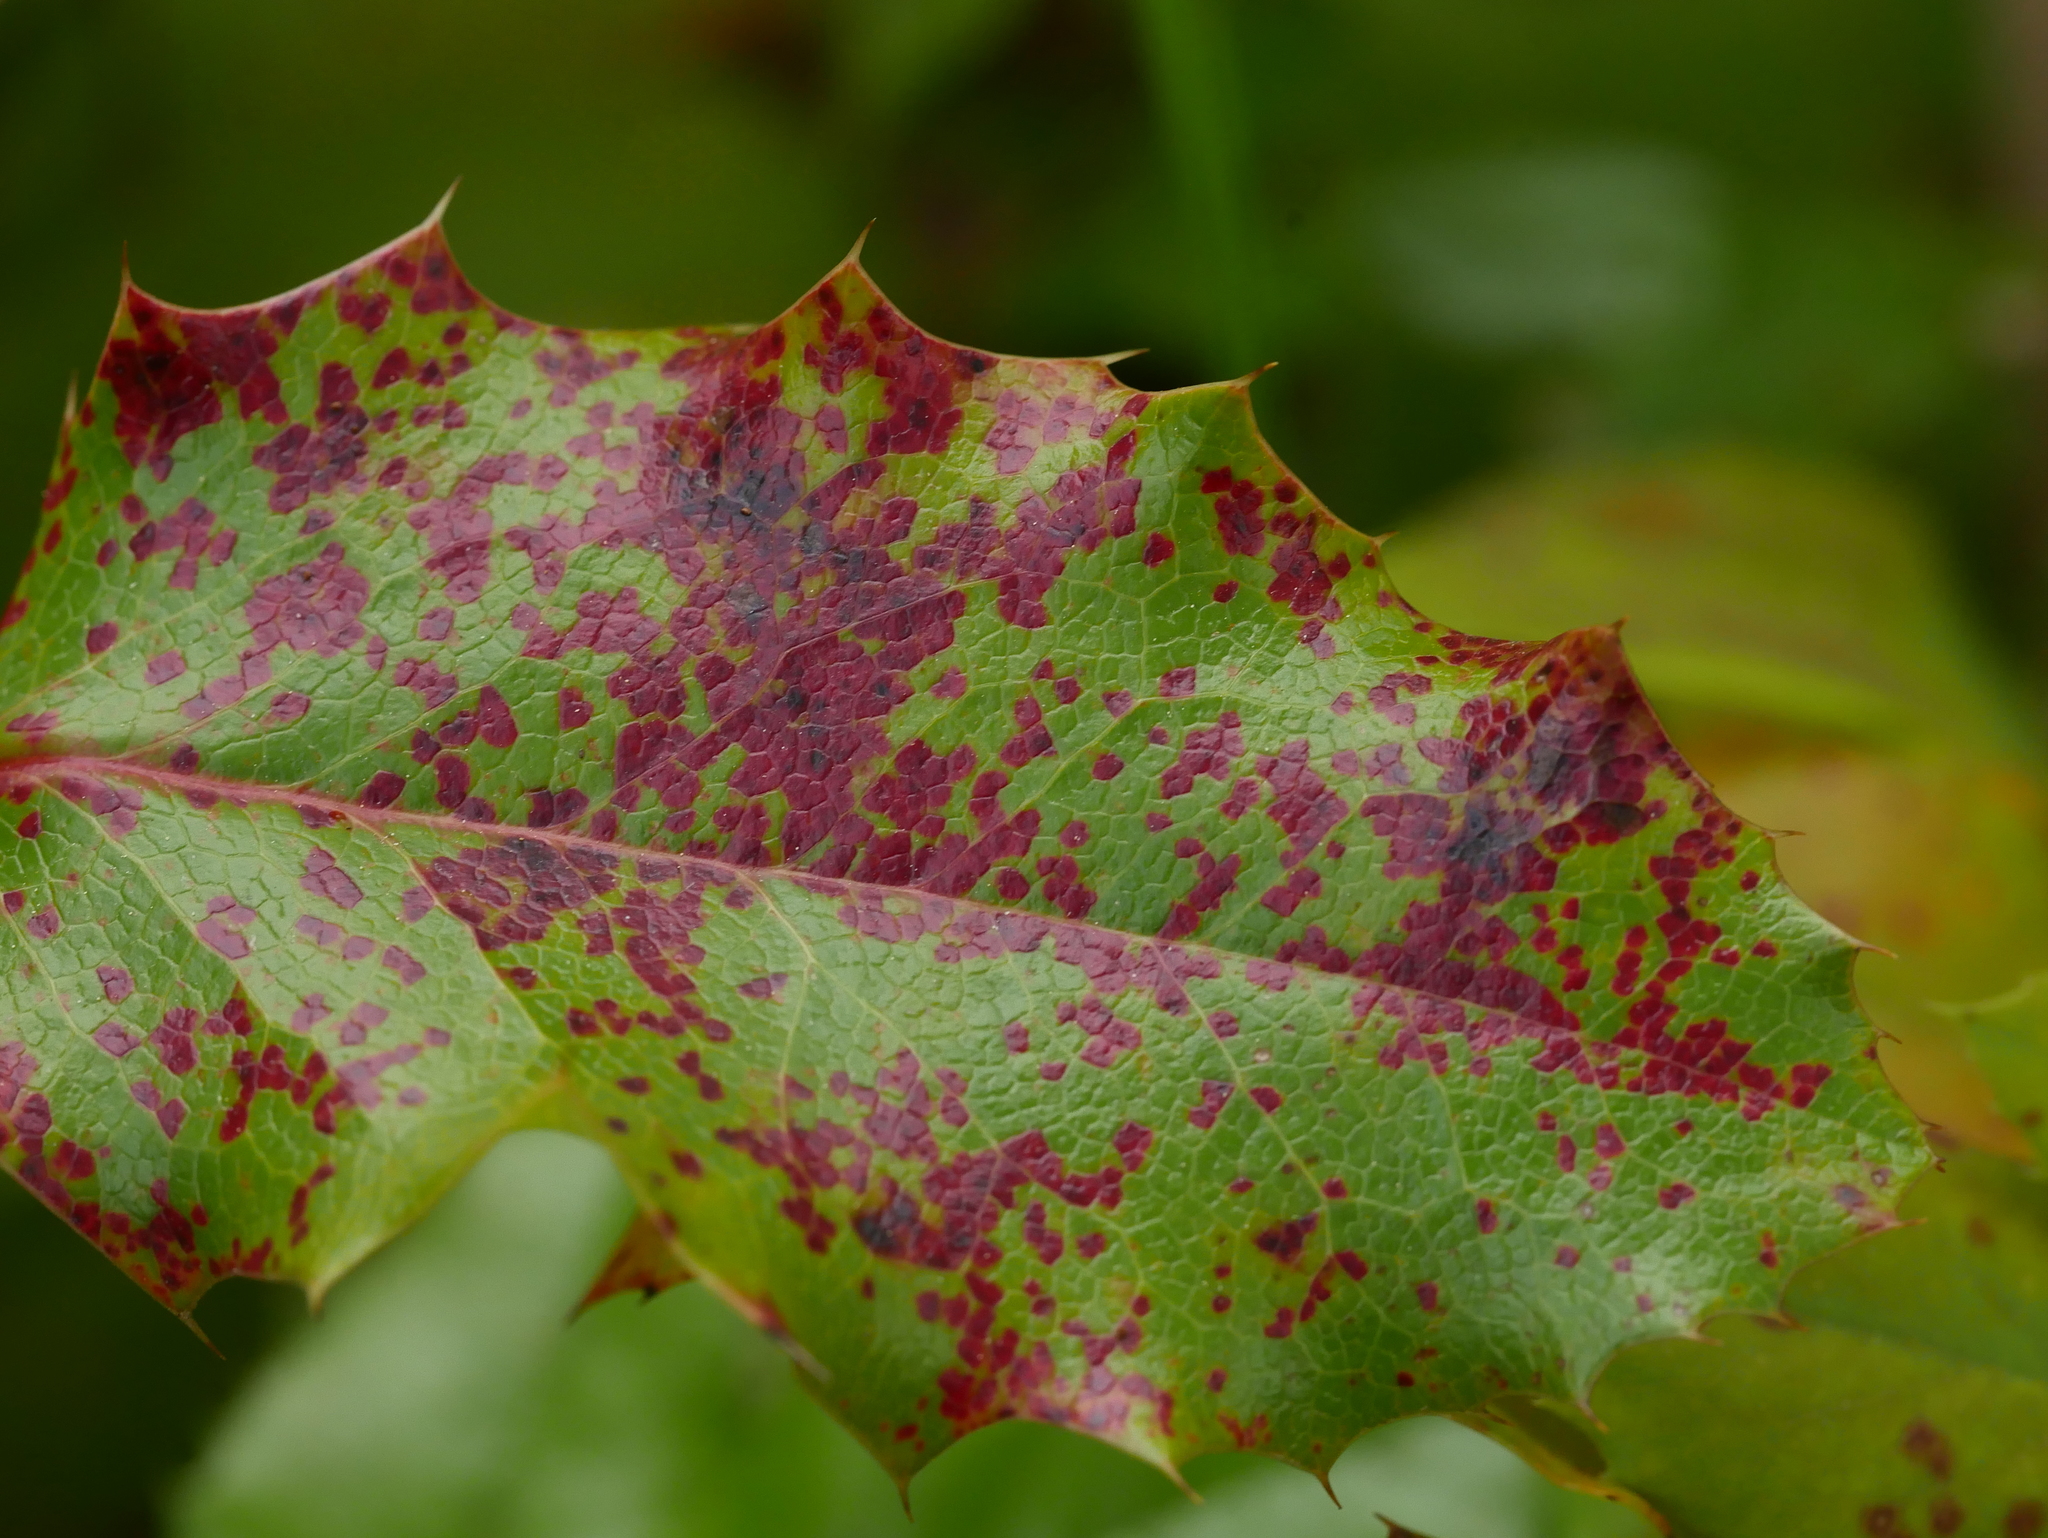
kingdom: Fungi
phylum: Basidiomycota
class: Pucciniomycetes
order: Pucciniales
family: Pucciniaceae
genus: Cumminsiella
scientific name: Cumminsiella mirabilissima
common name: Mahonia rust
